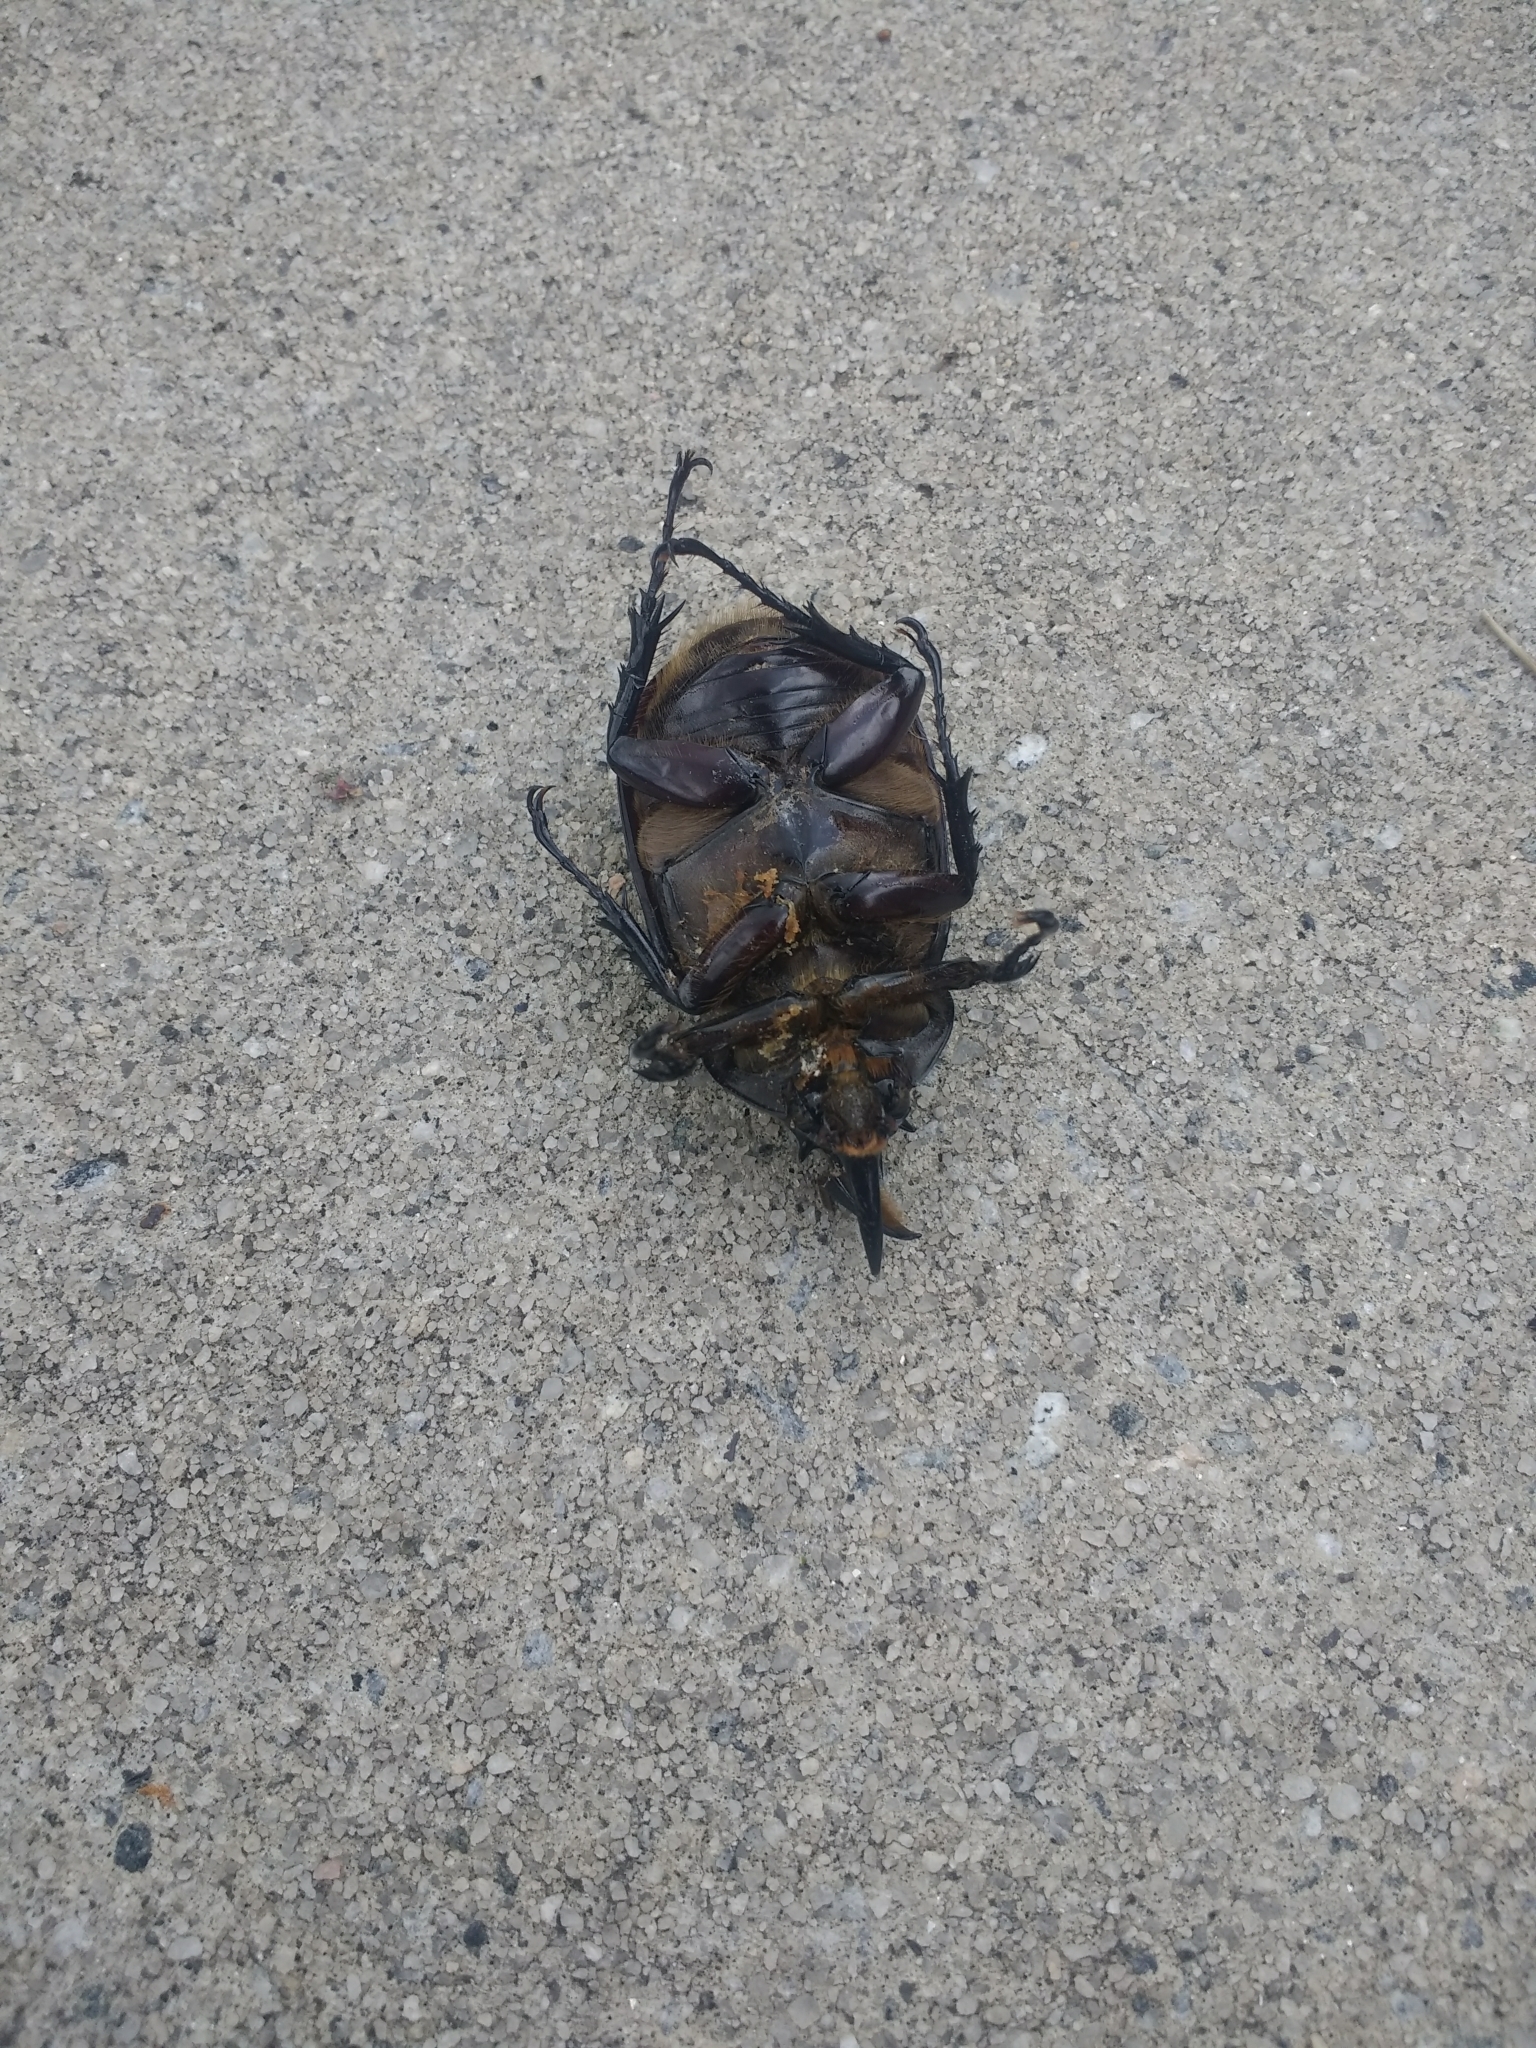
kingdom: Animalia
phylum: Arthropoda
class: Insecta
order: Coleoptera
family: Scarabaeidae
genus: Dynastes
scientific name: Dynastes tityus
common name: Eastern hercules beetle
